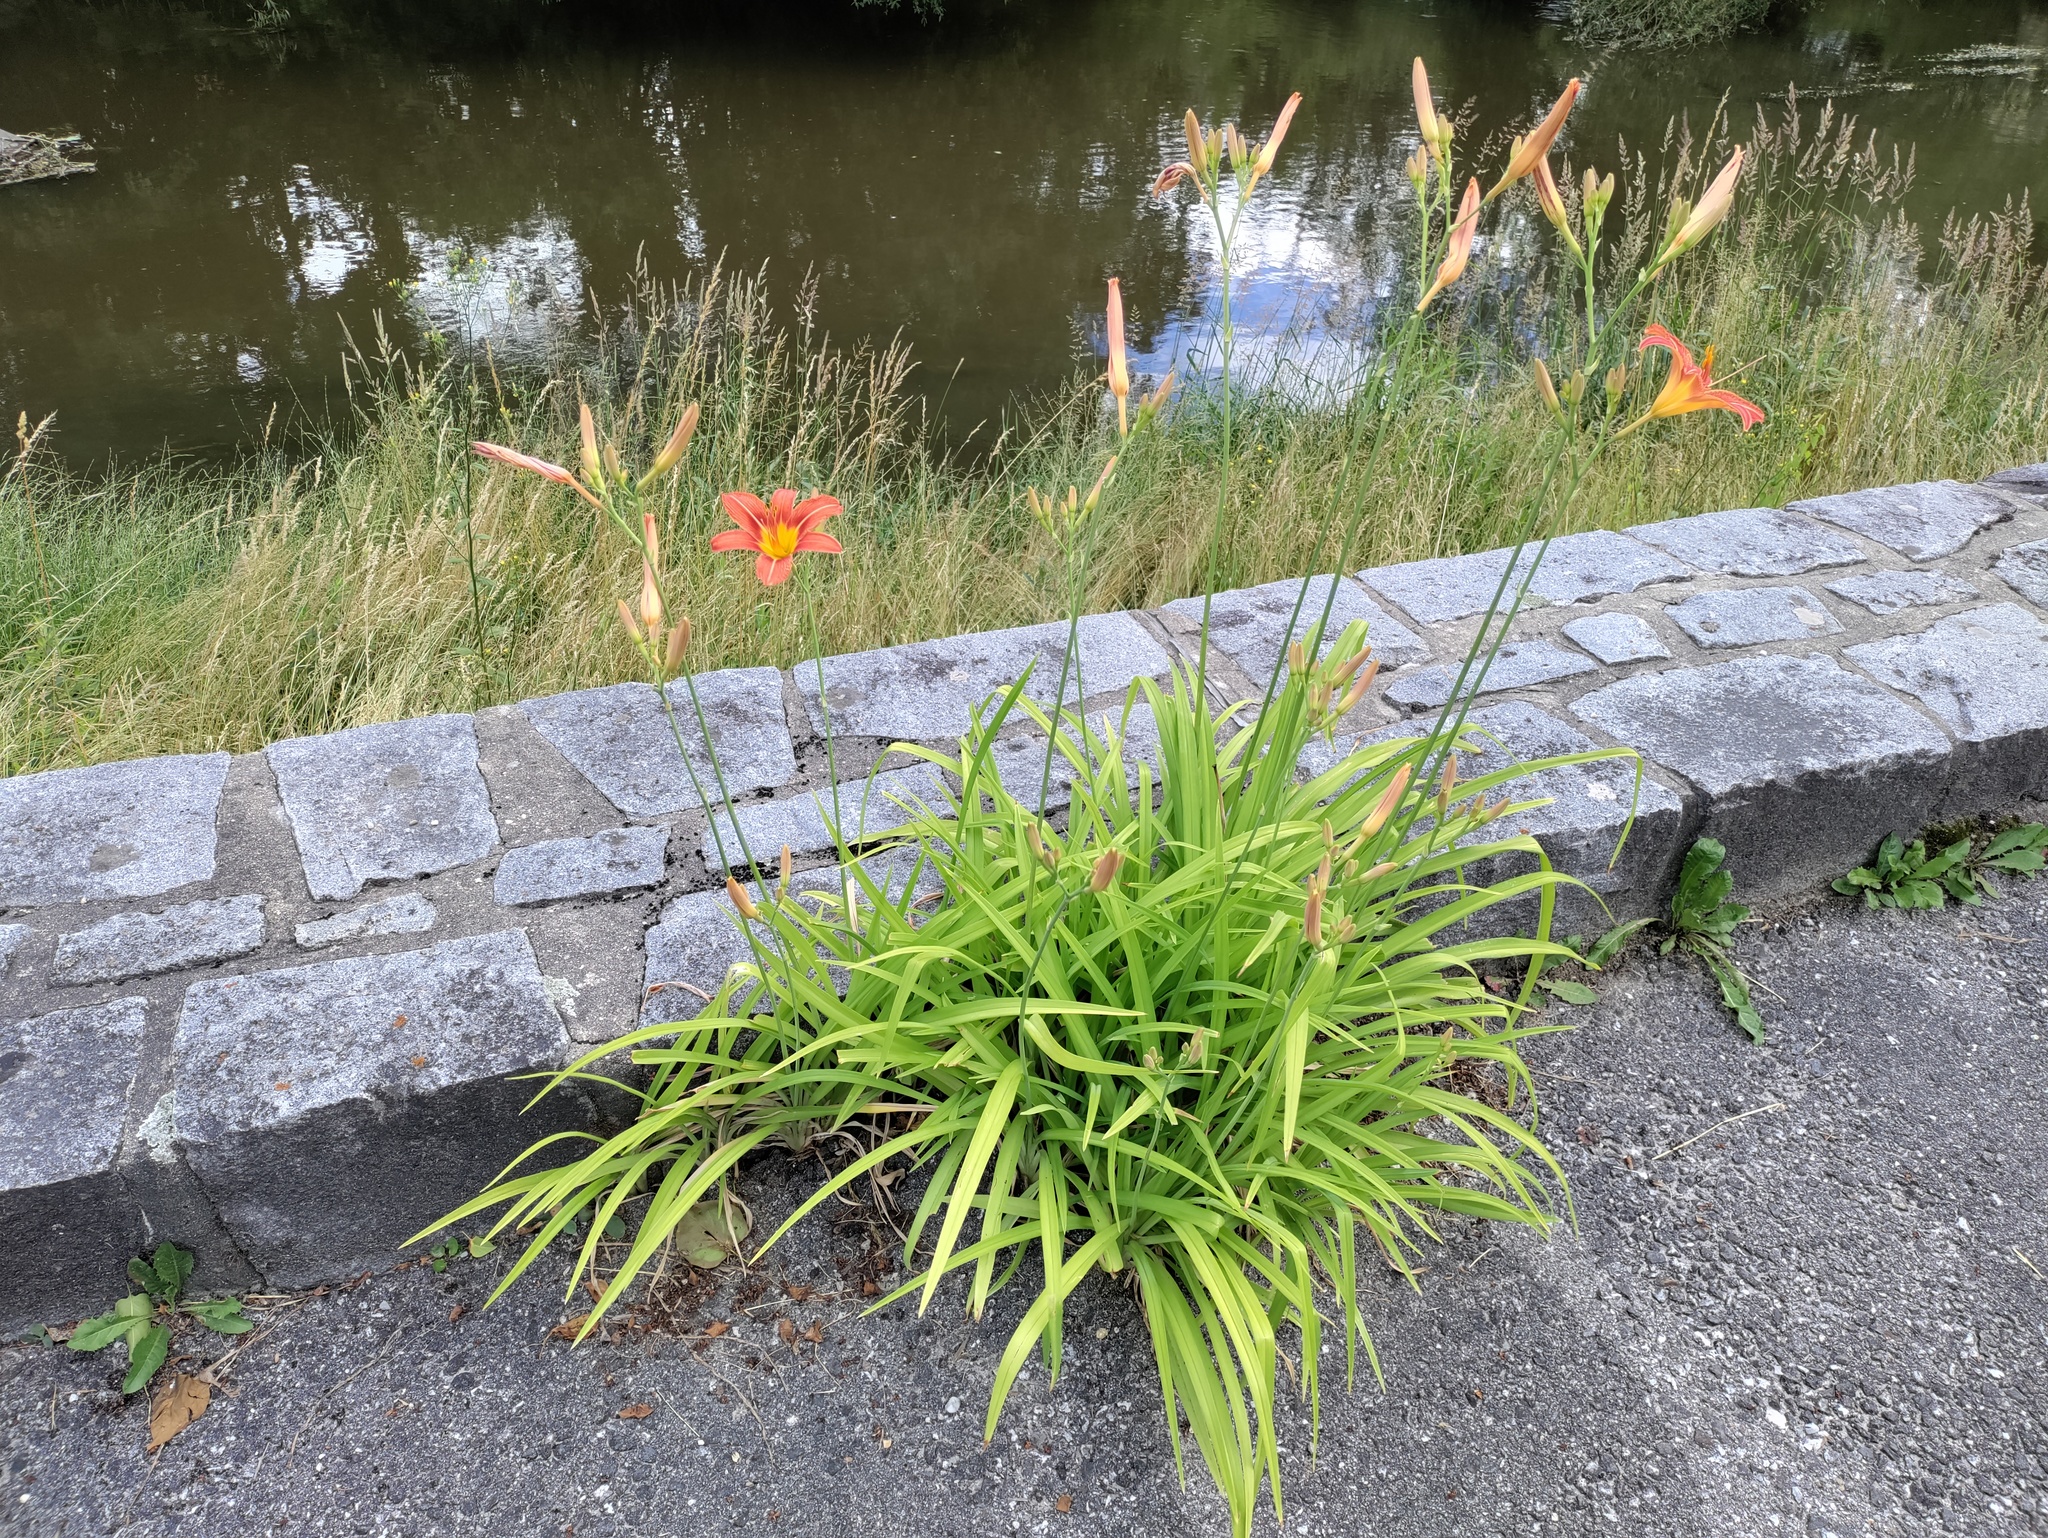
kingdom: Plantae
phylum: Tracheophyta
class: Liliopsida
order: Asparagales
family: Asphodelaceae
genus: Hemerocallis
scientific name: Hemerocallis fulva
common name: Orange day-lily
